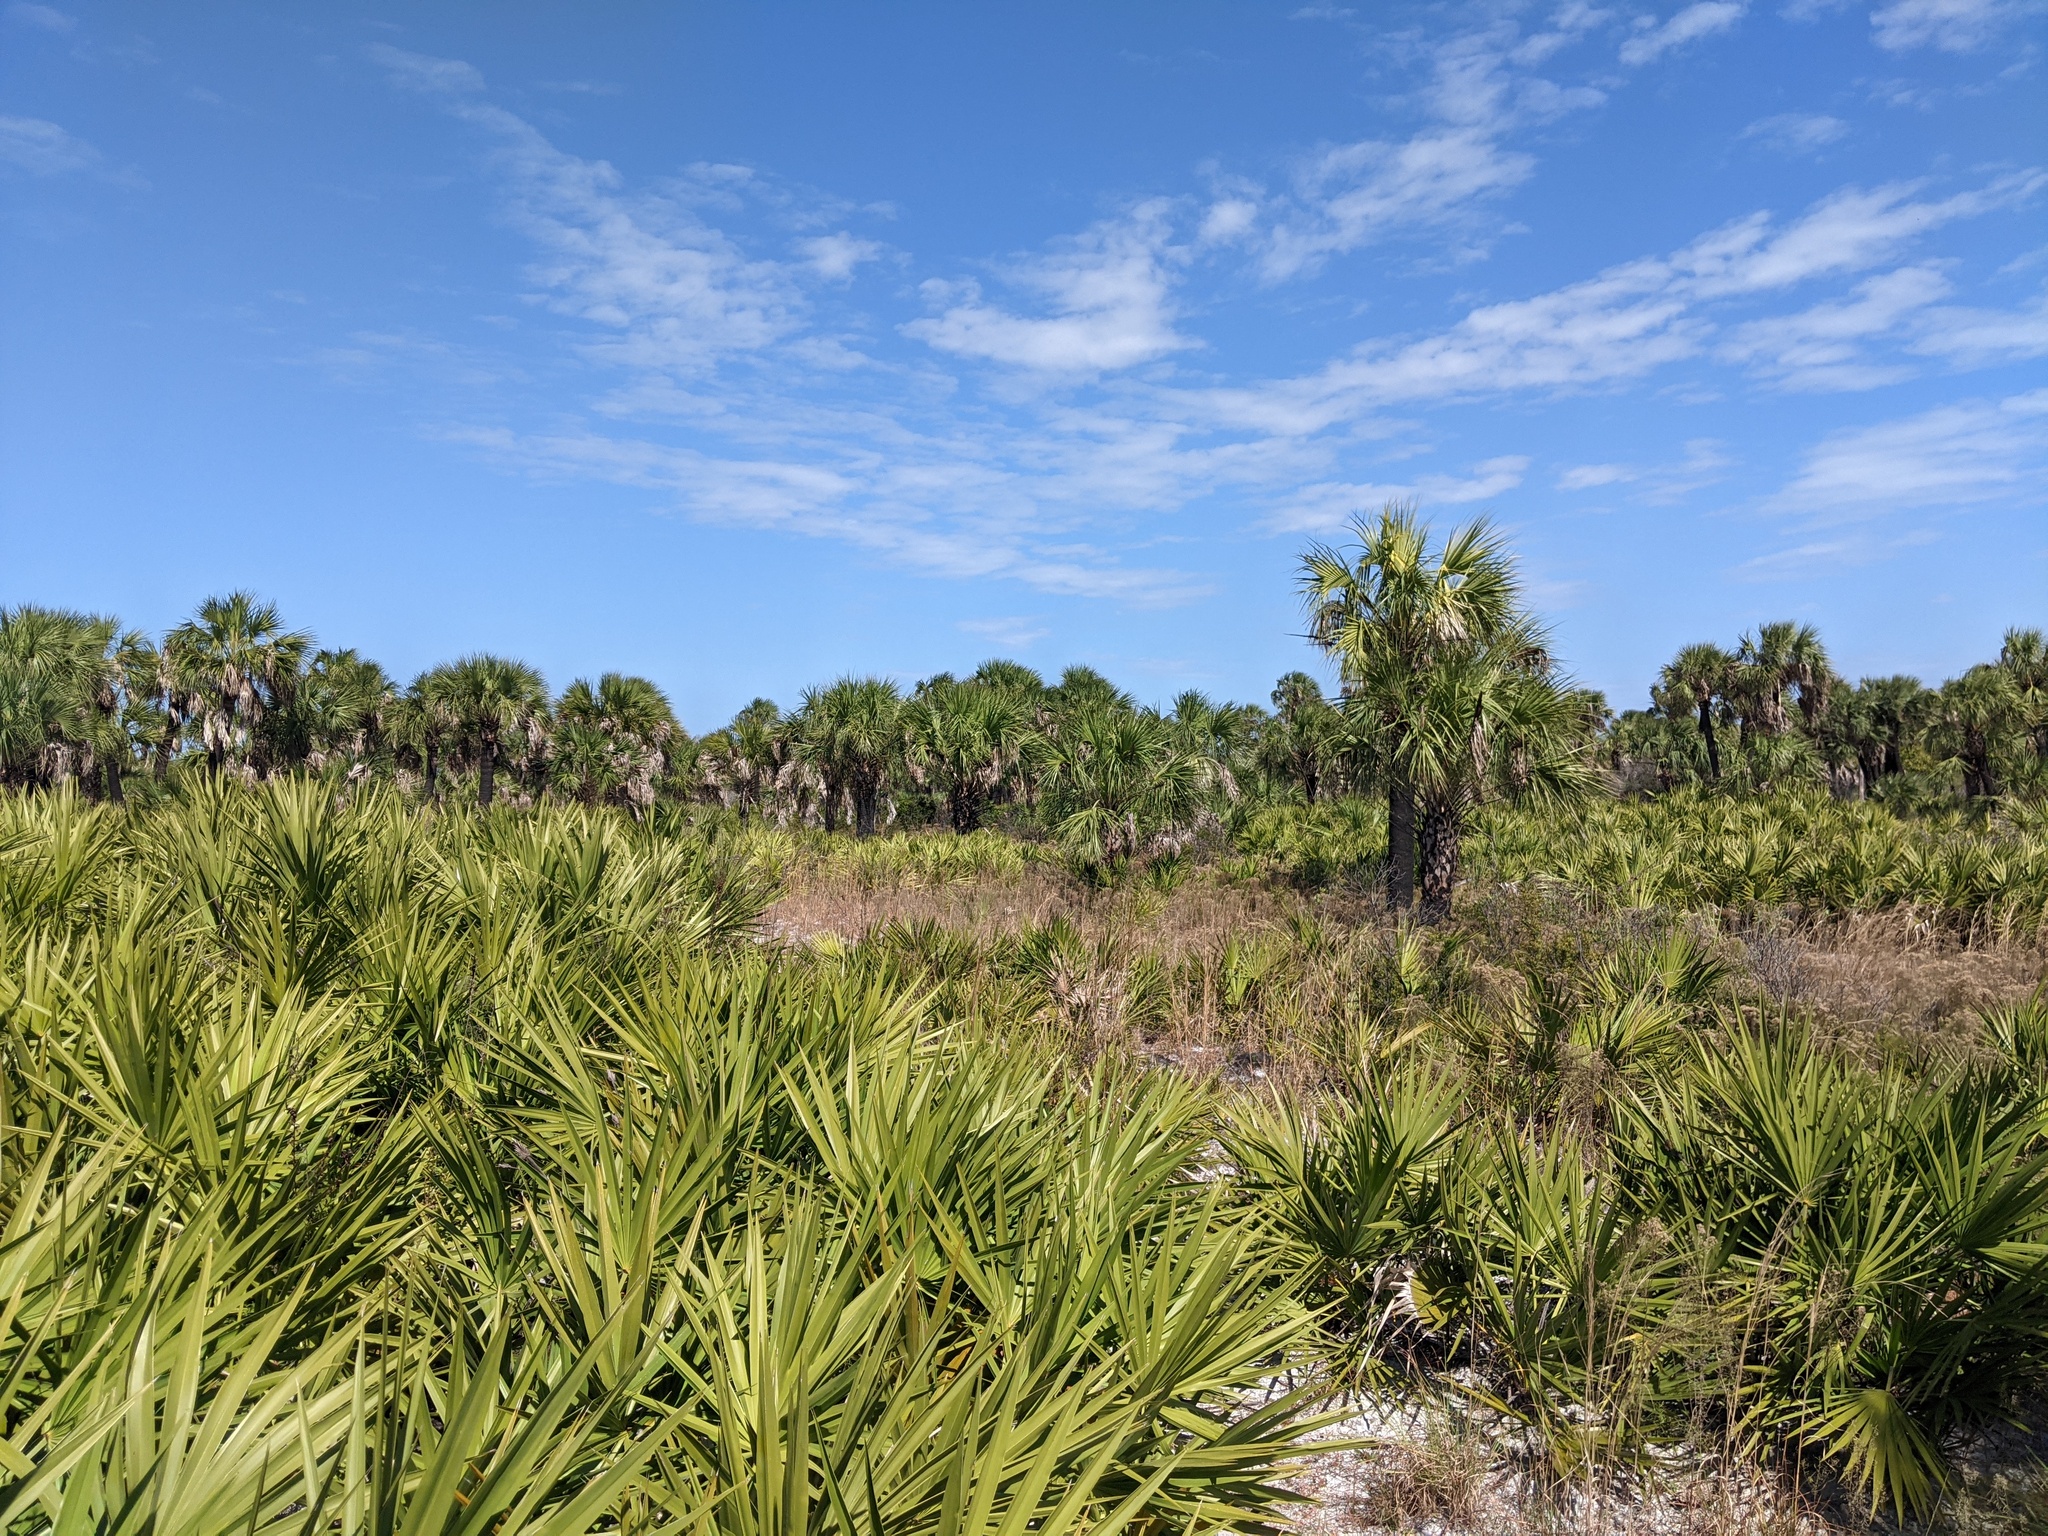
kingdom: Plantae
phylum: Tracheophyta
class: Liliopsida
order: Arecales
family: Arecaceae
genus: Serenoa
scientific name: Serenoa repens
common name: Saw-palmetto
